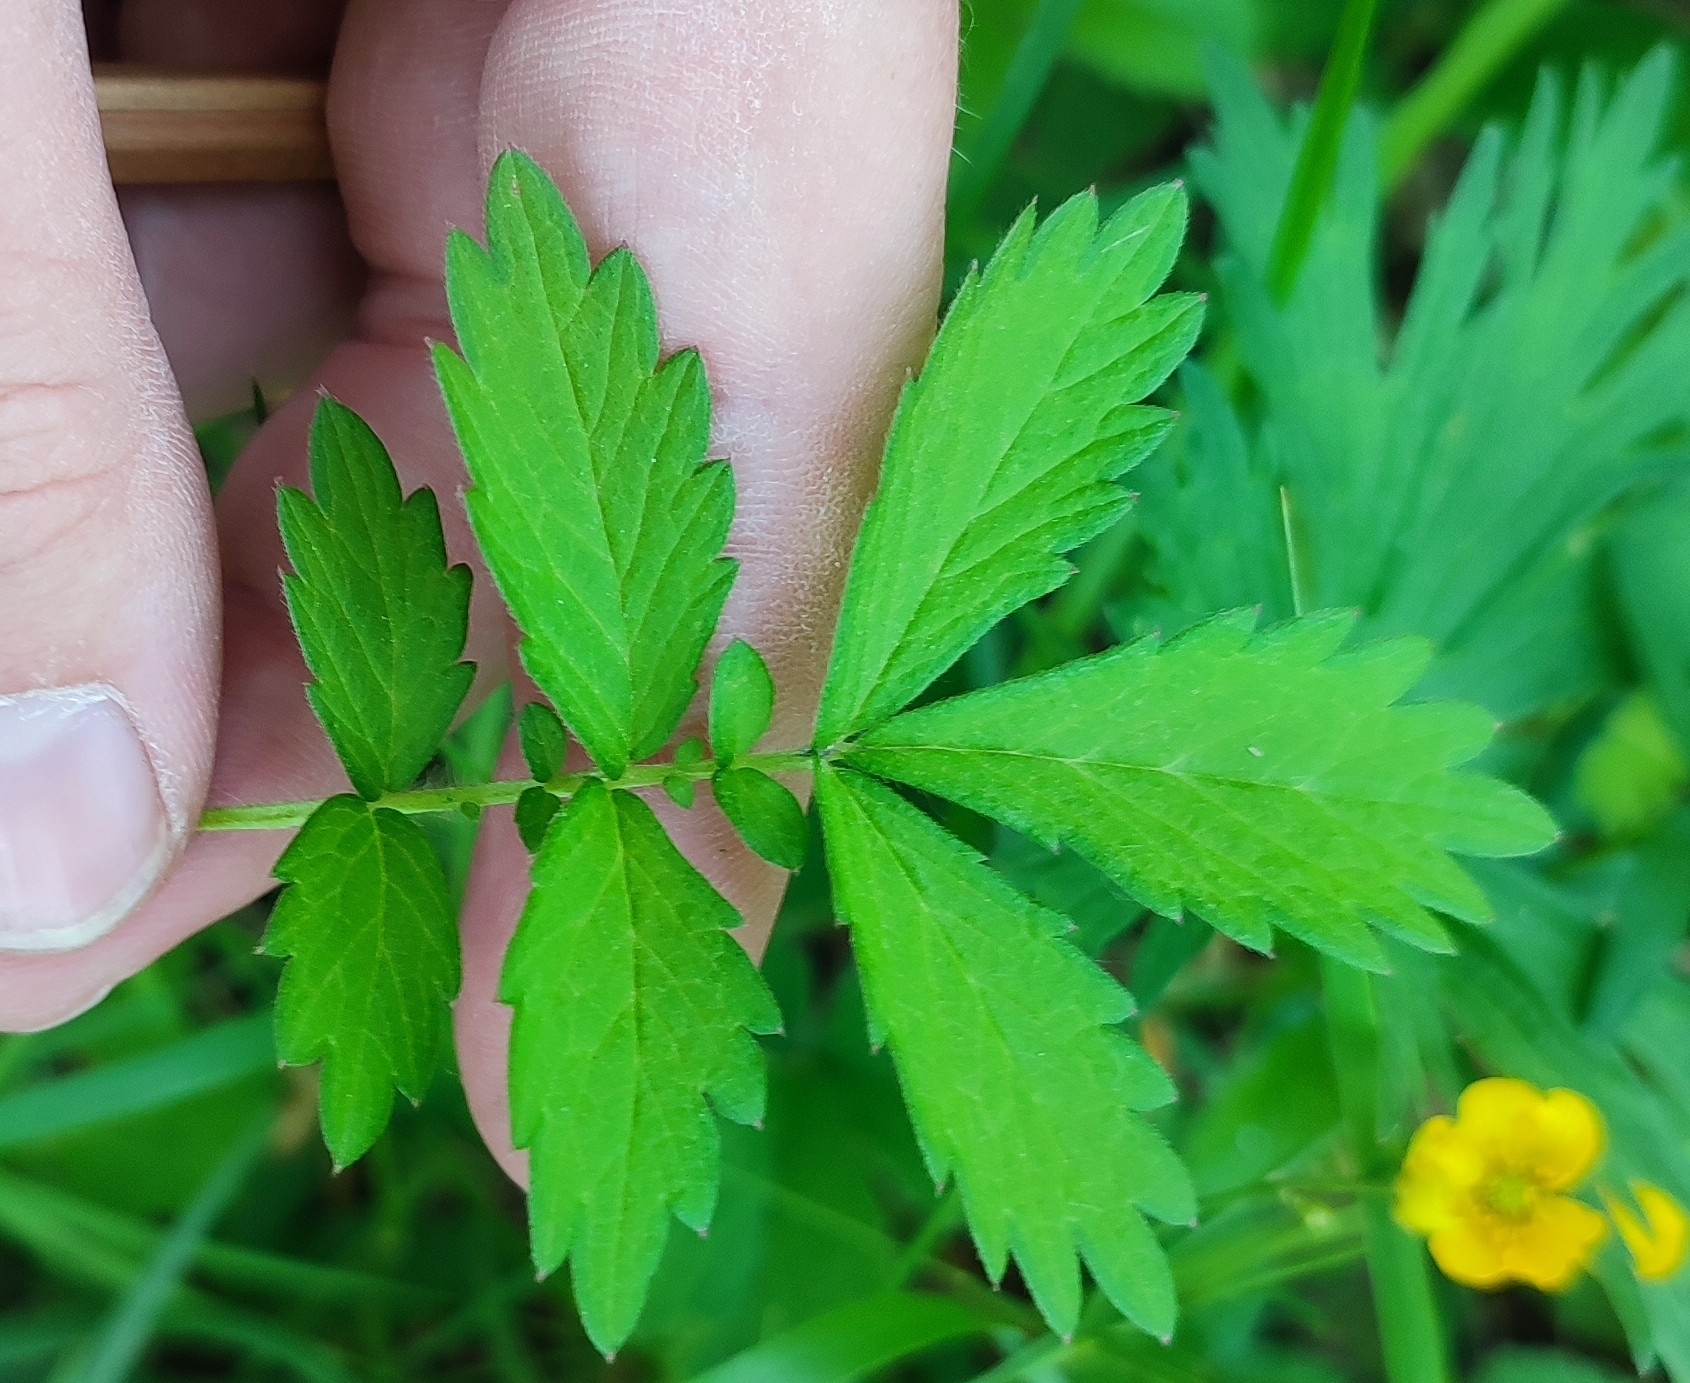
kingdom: Plantae
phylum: Tracheophyta
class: Magnoliopsida
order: Rosales
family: Rosaceae
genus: Agrimonia
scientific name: Agrimonia pilosa
